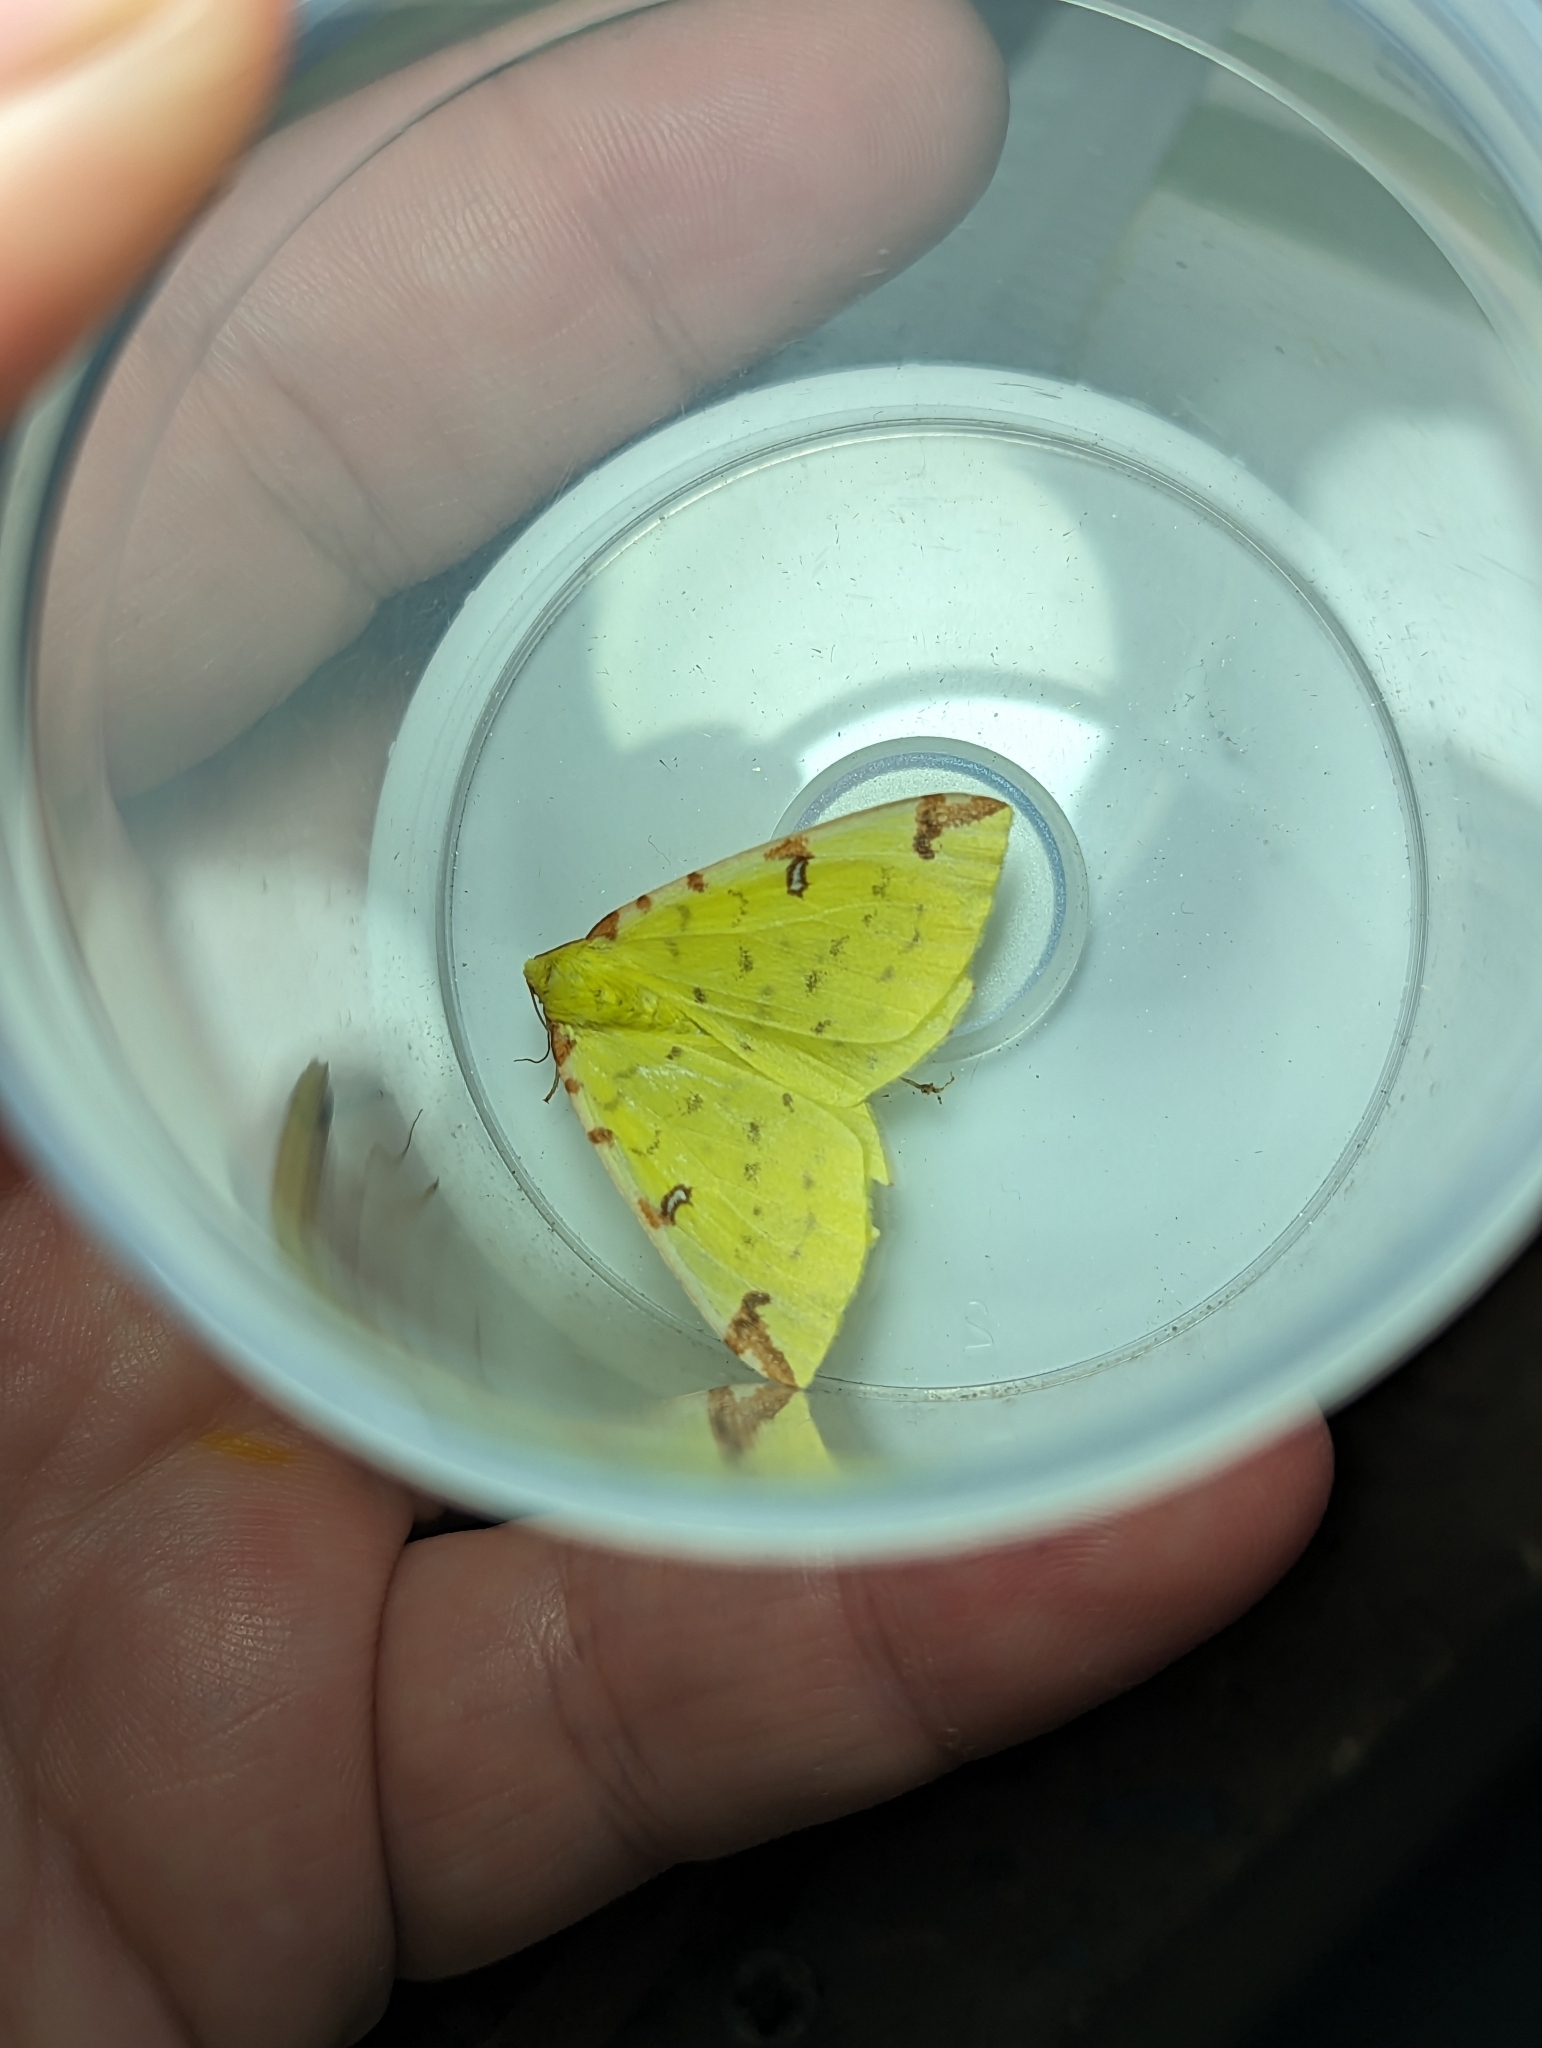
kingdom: Animalia
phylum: Arthropoda
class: Insecta
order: Lepidoptera
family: Geometridae
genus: Opisthograptis
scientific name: Opisthograptis luteolata
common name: Brimstone moth
